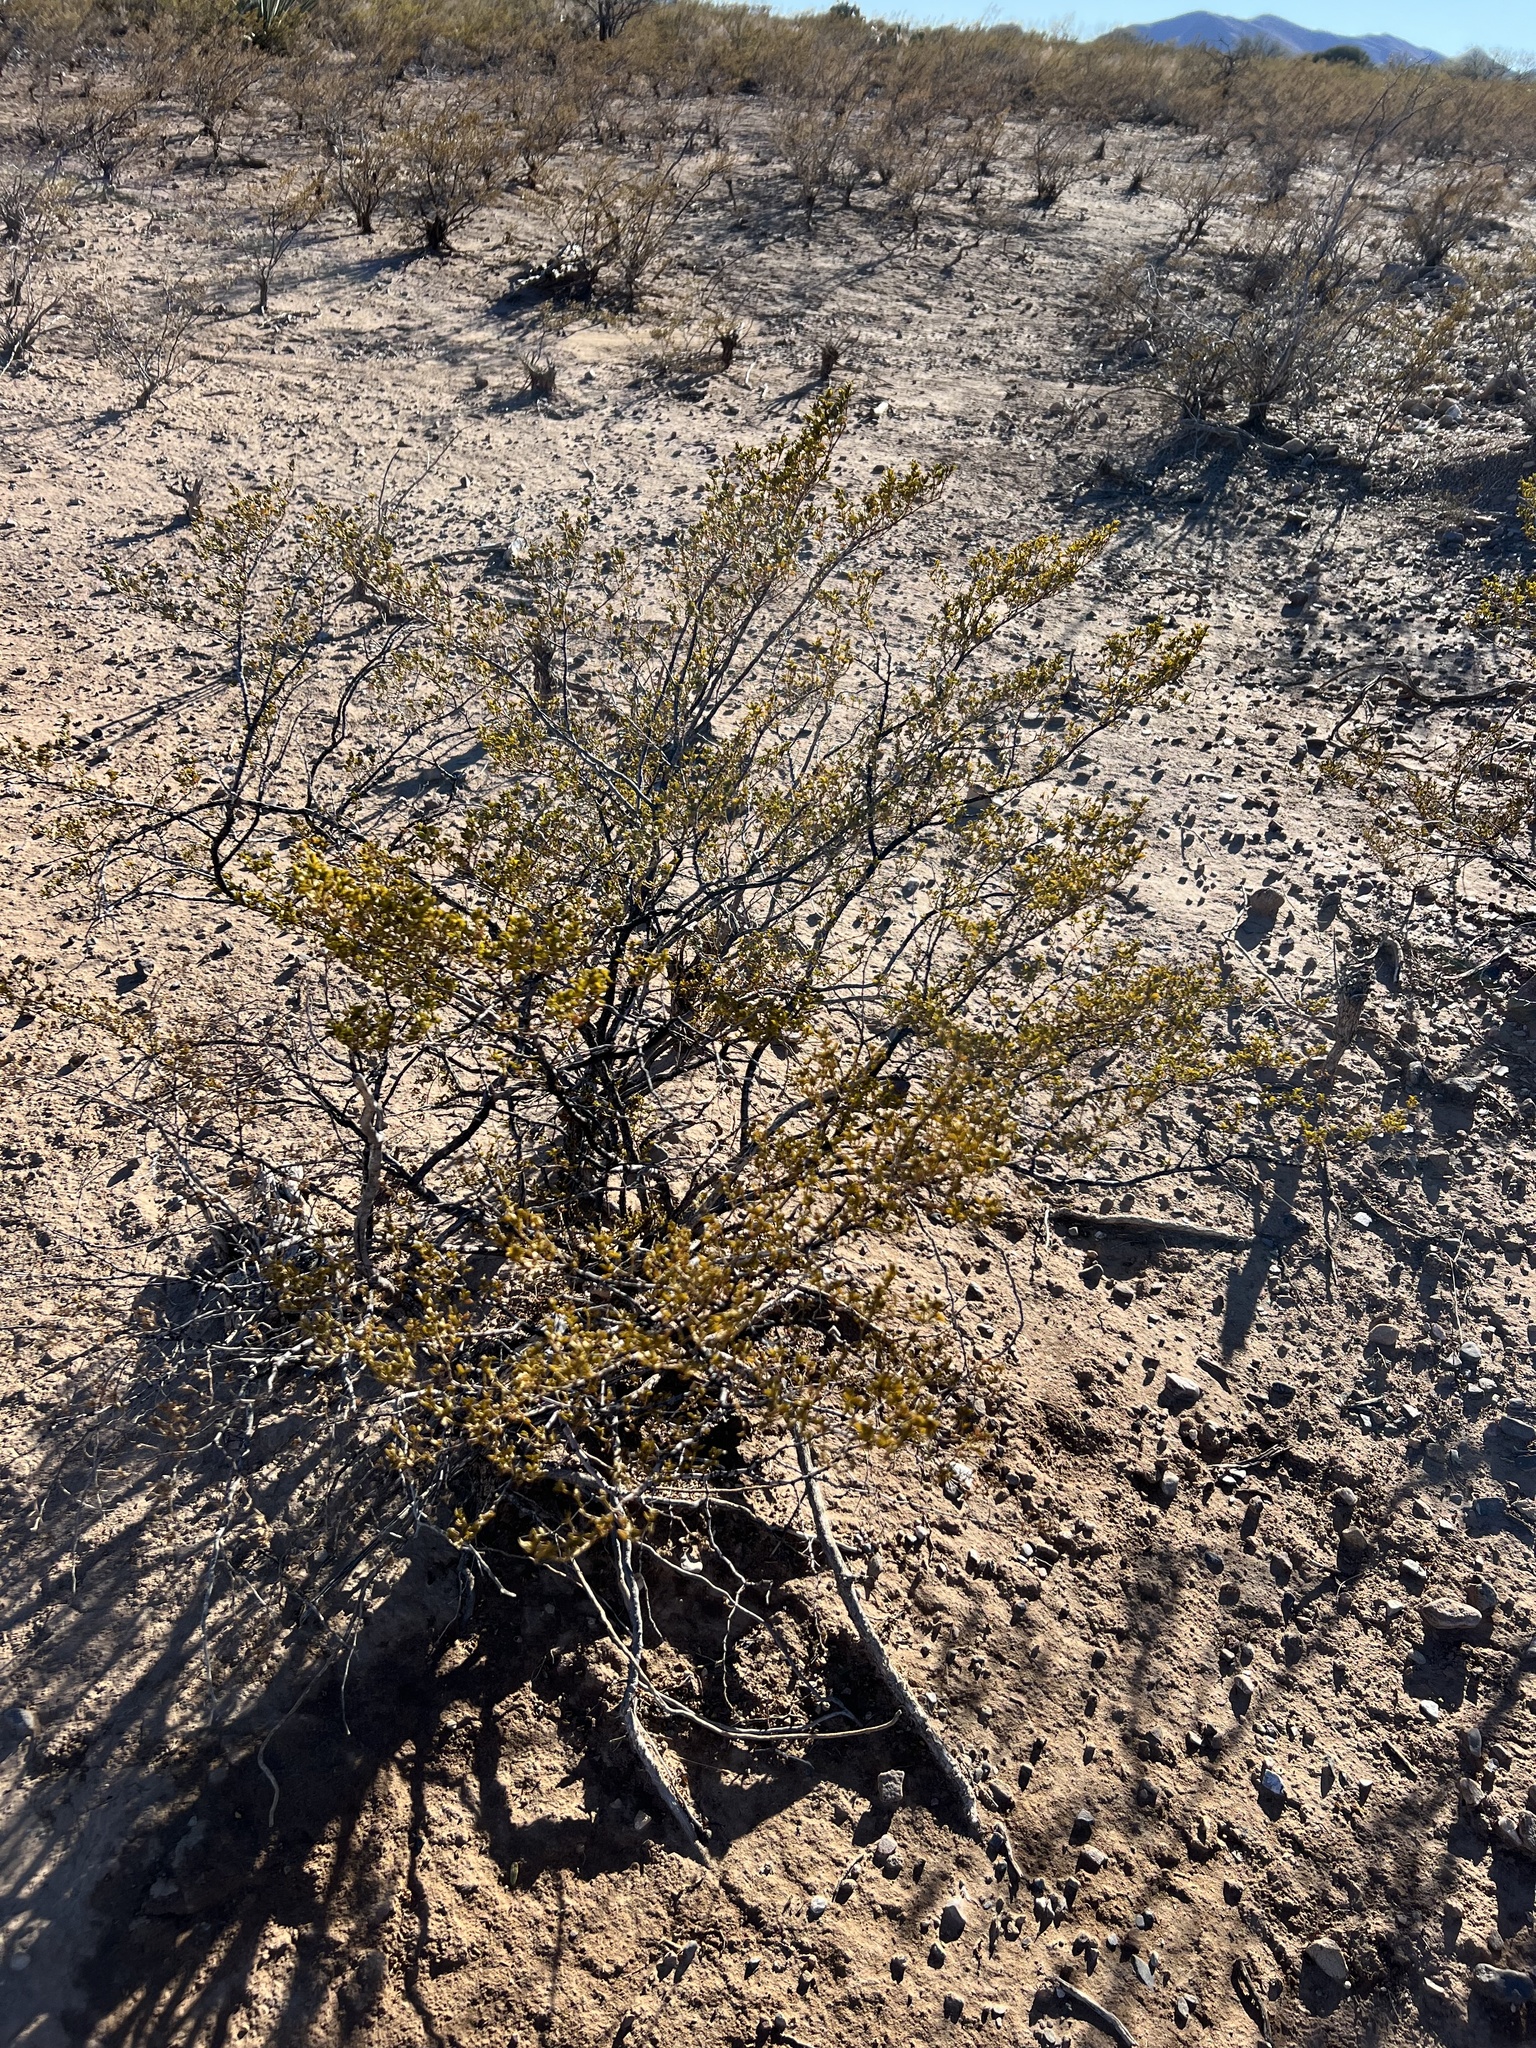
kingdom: Plantae
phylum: Tracheophyta
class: Magnoliopsida
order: Zygophyllales
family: Zygophyllaceae
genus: Larrea
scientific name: Larrea tridentata
